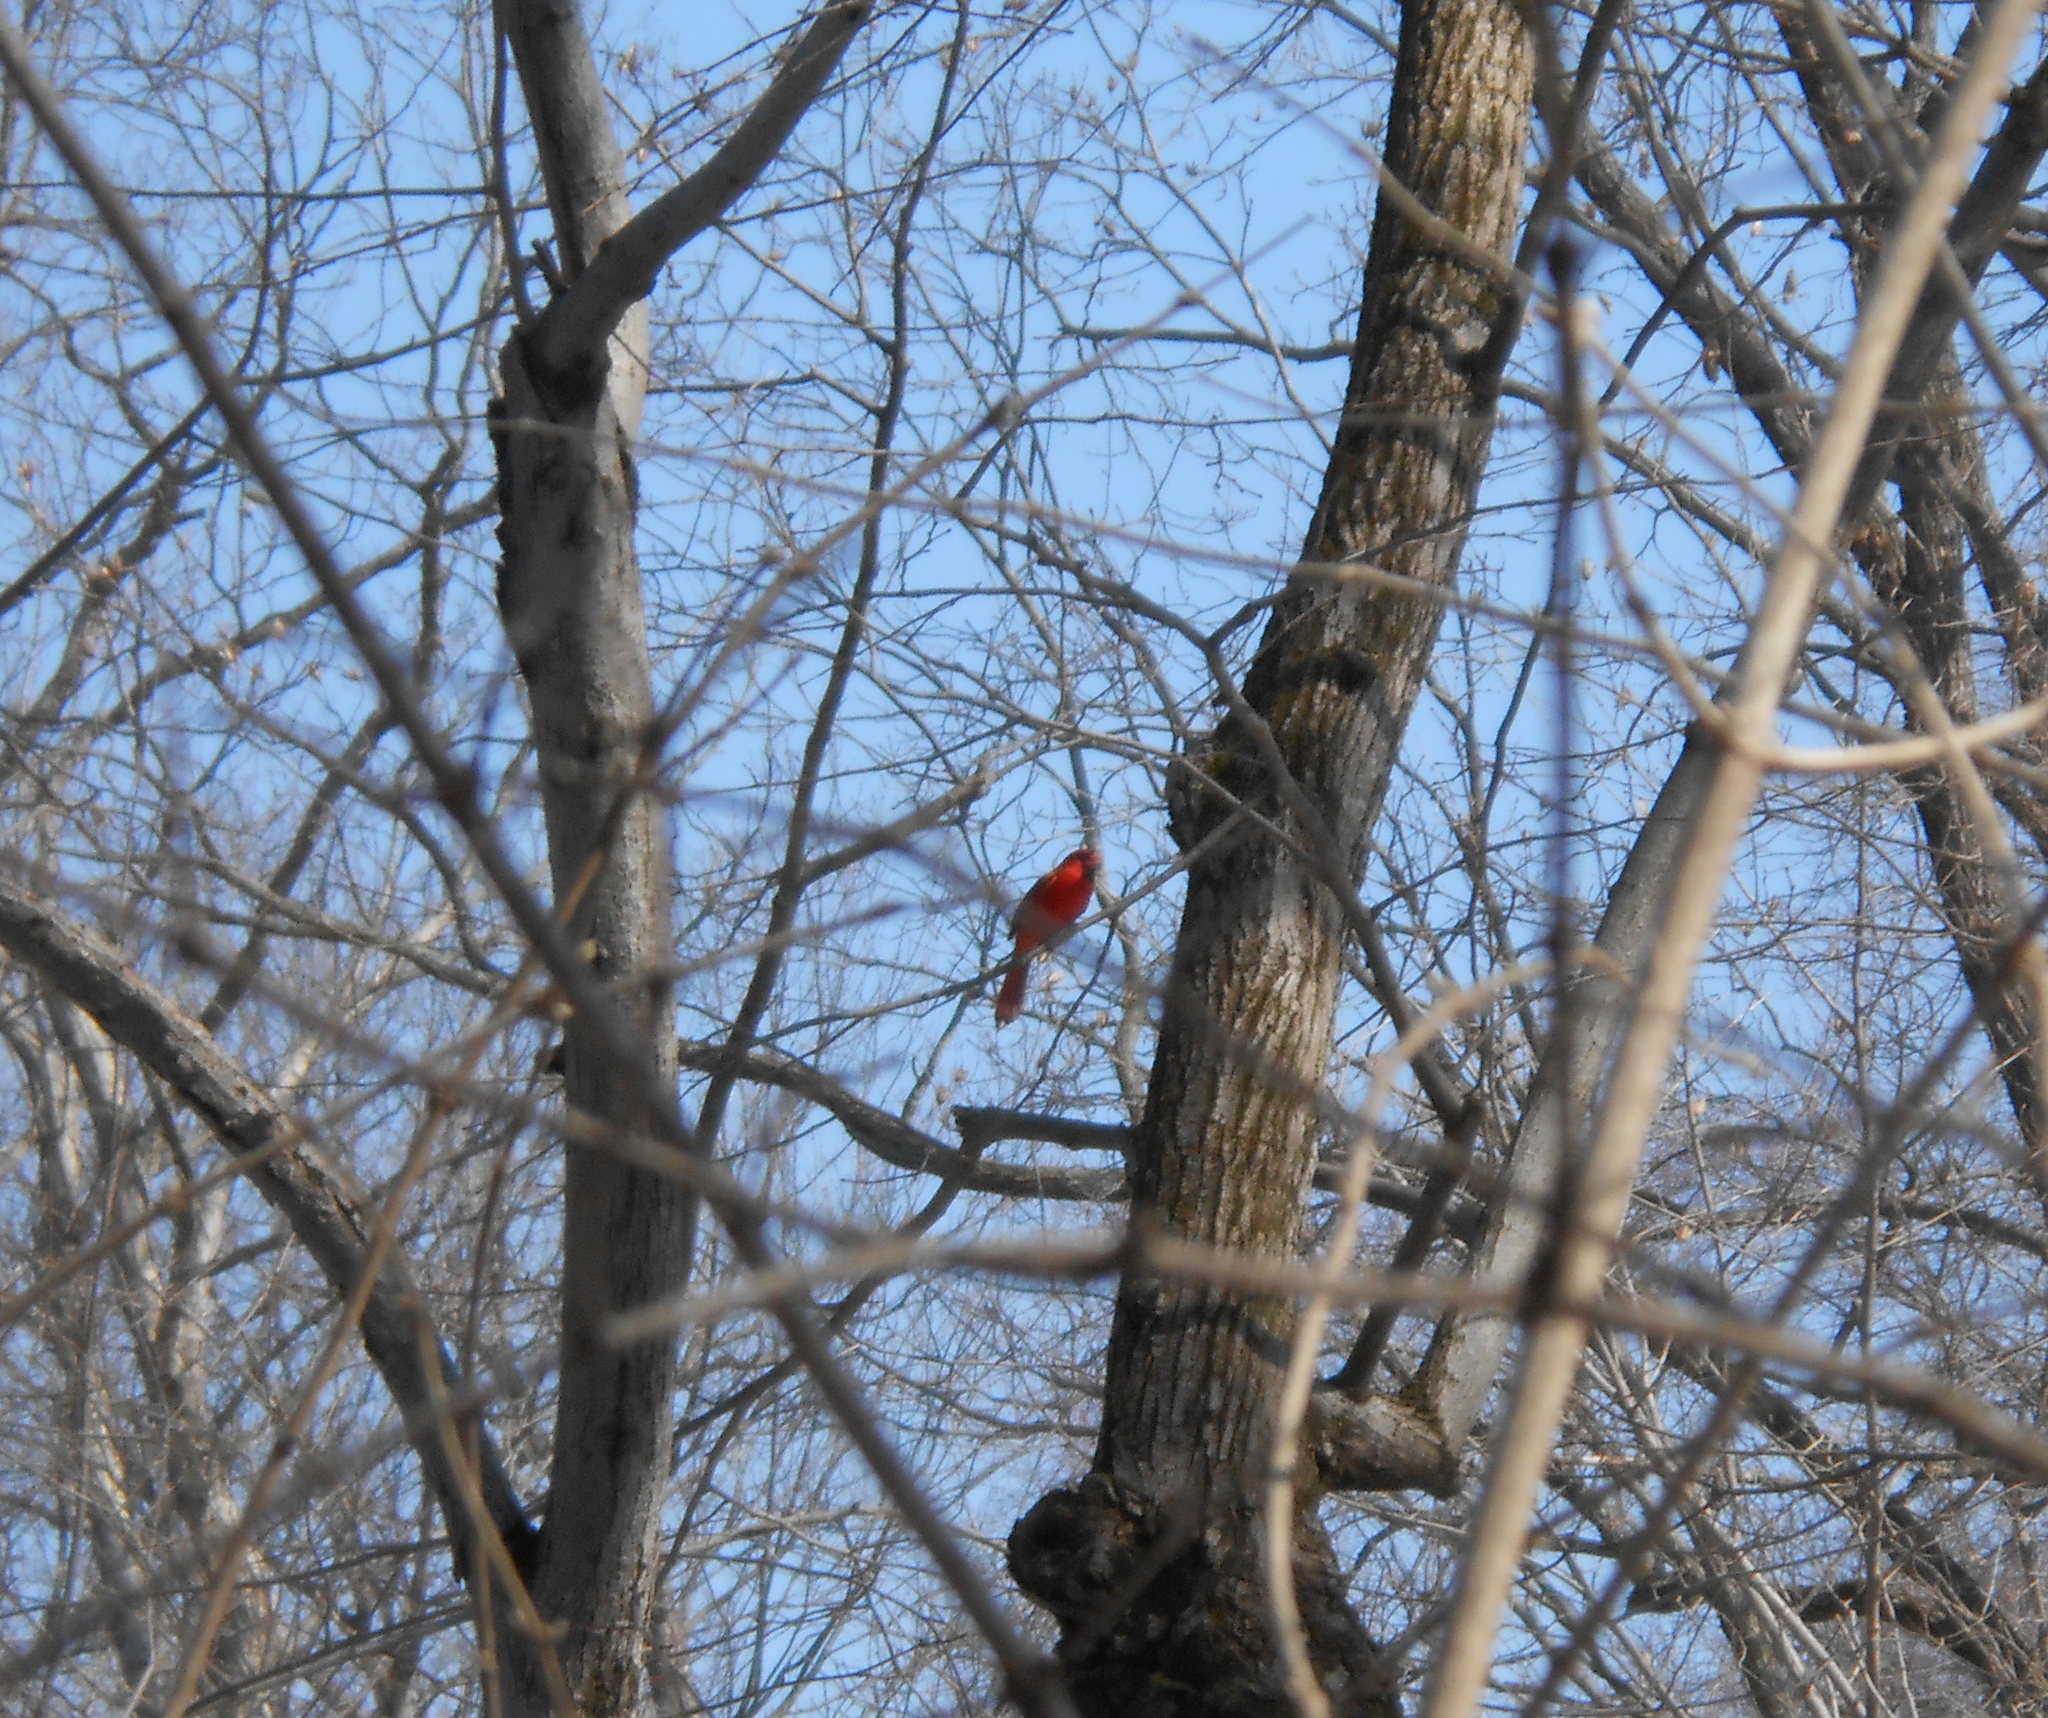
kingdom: Animalia
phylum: Chordata
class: Aves
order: Passeriformes
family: Cardinalidae
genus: Cardinalis
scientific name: Cardinalis cardinalis
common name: Northern cardinal
